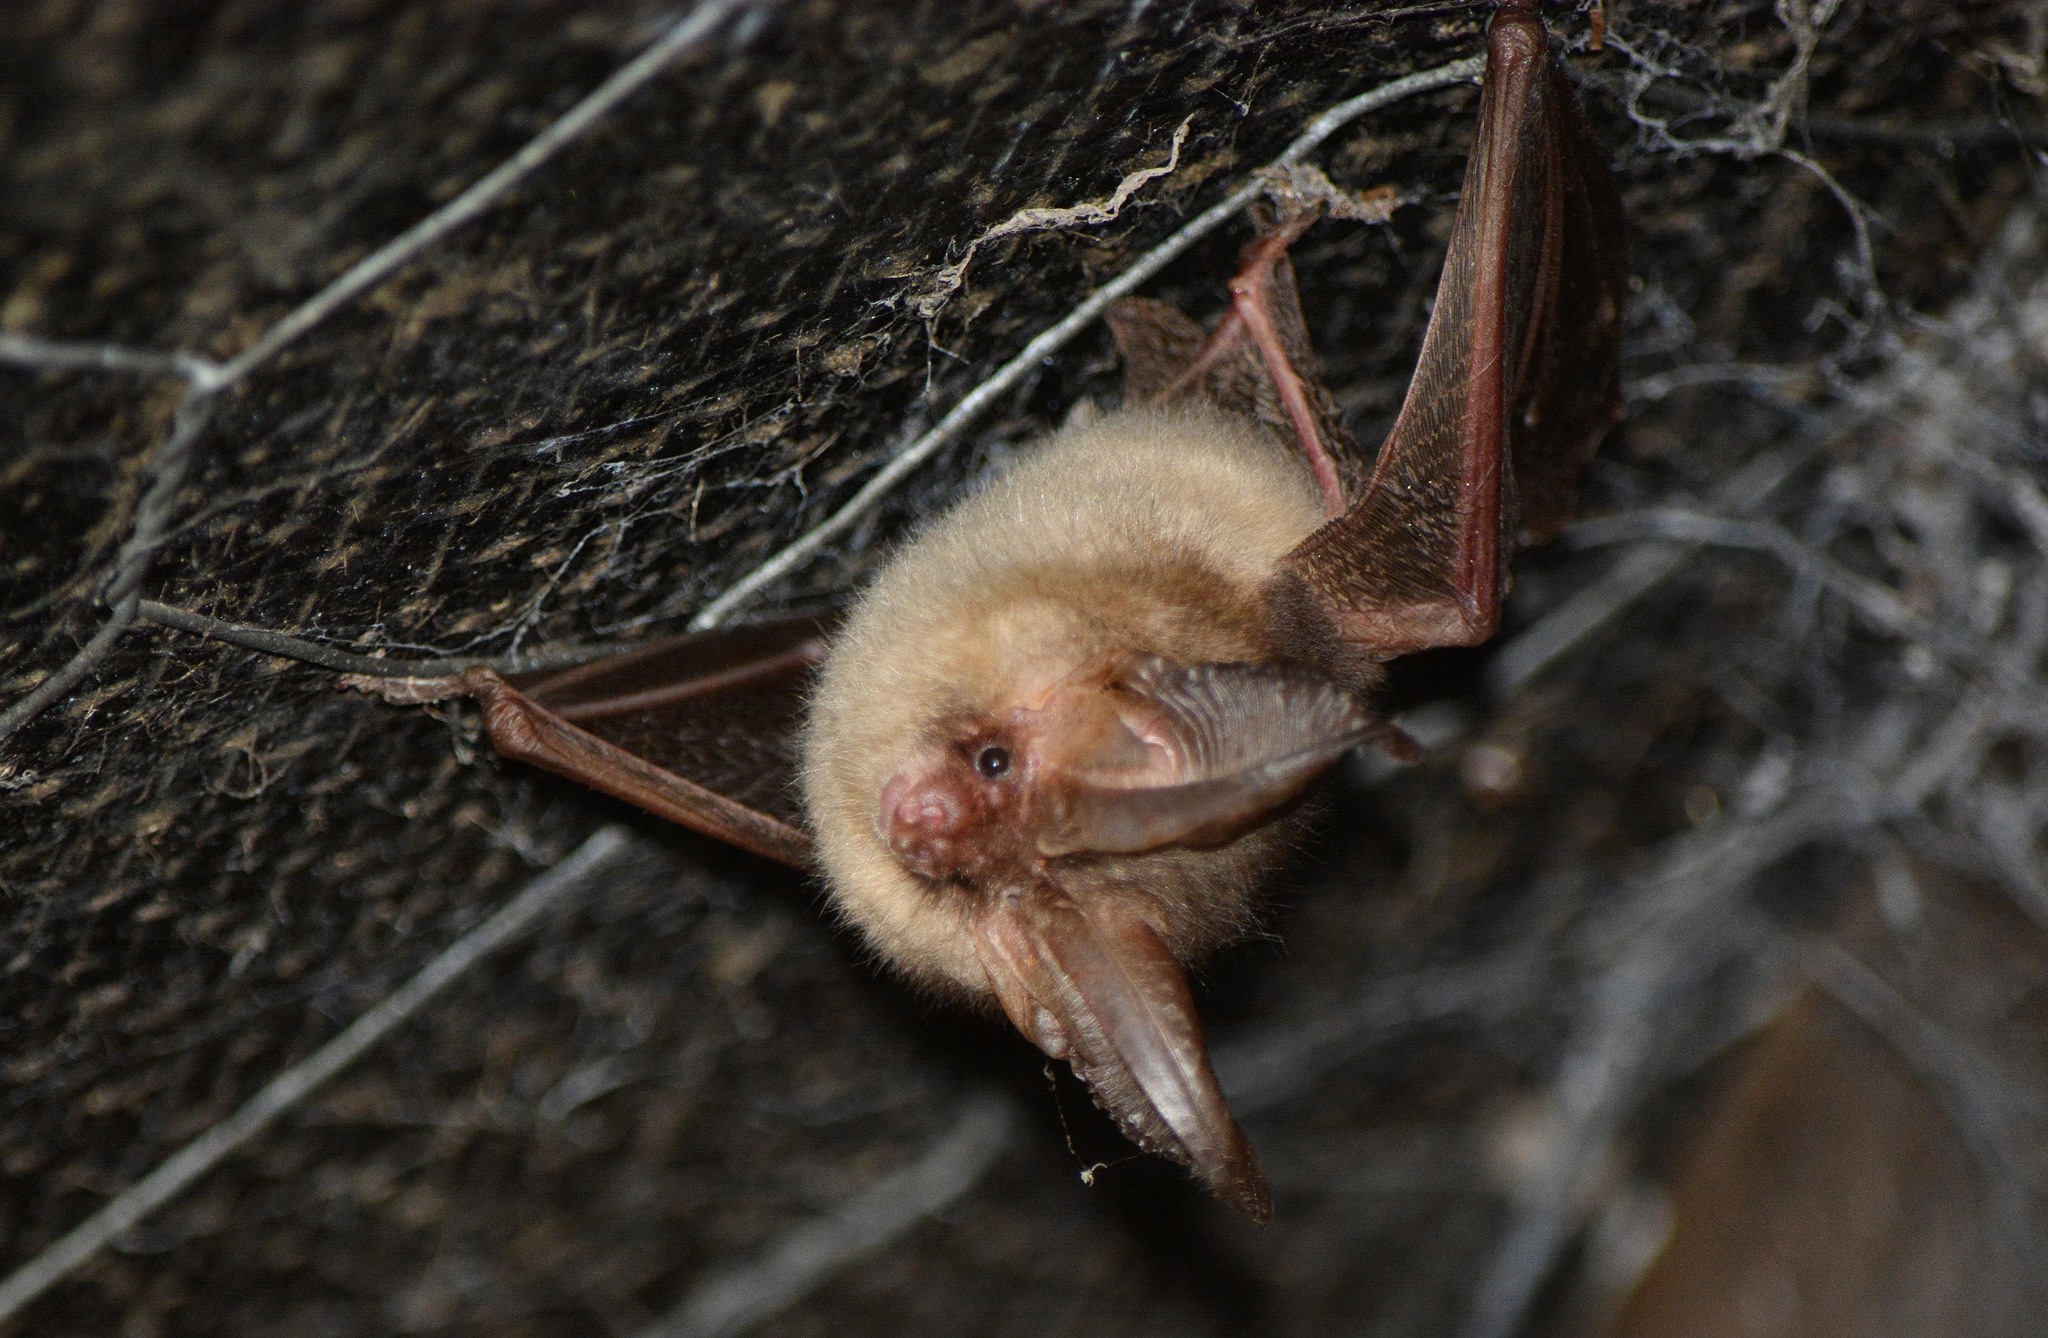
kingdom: Animalia
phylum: Chordata
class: Mammalia
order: Chiroptera
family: Vespertilionidae
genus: Plecotus
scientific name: Plecotus auritus
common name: Brown long-eared bat
